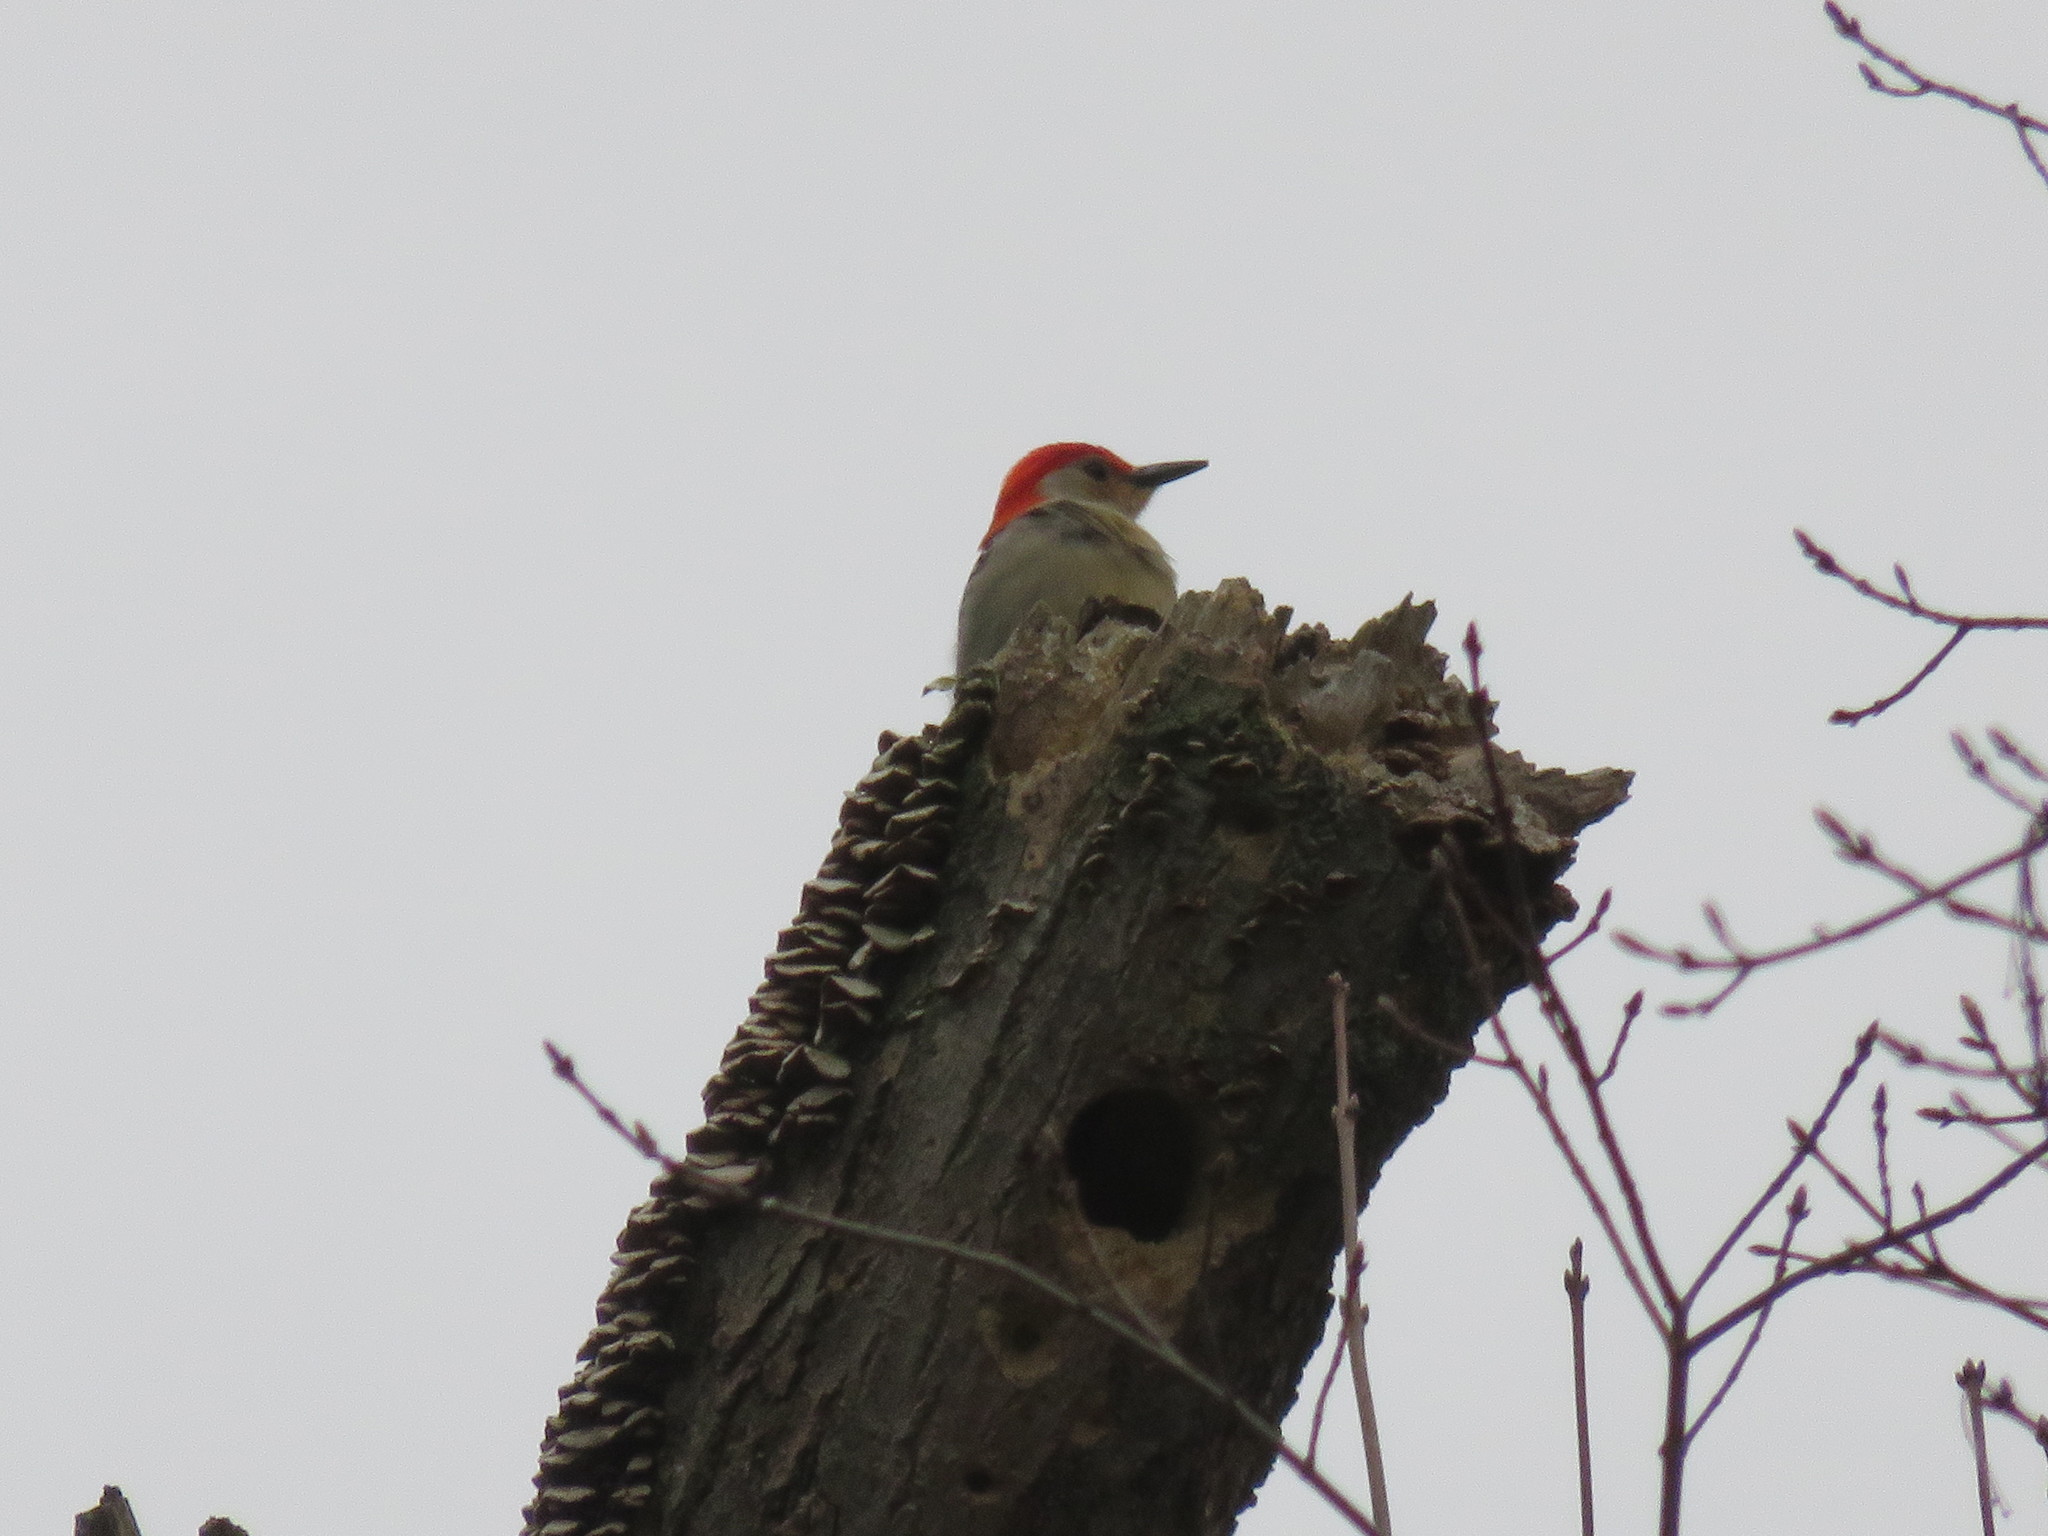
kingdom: Animalia
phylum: Chordata
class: Aves
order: Piciformes
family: Picidae
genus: Melanerpes
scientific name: Melanerpes carolinus
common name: Red-bellied woodpecker
